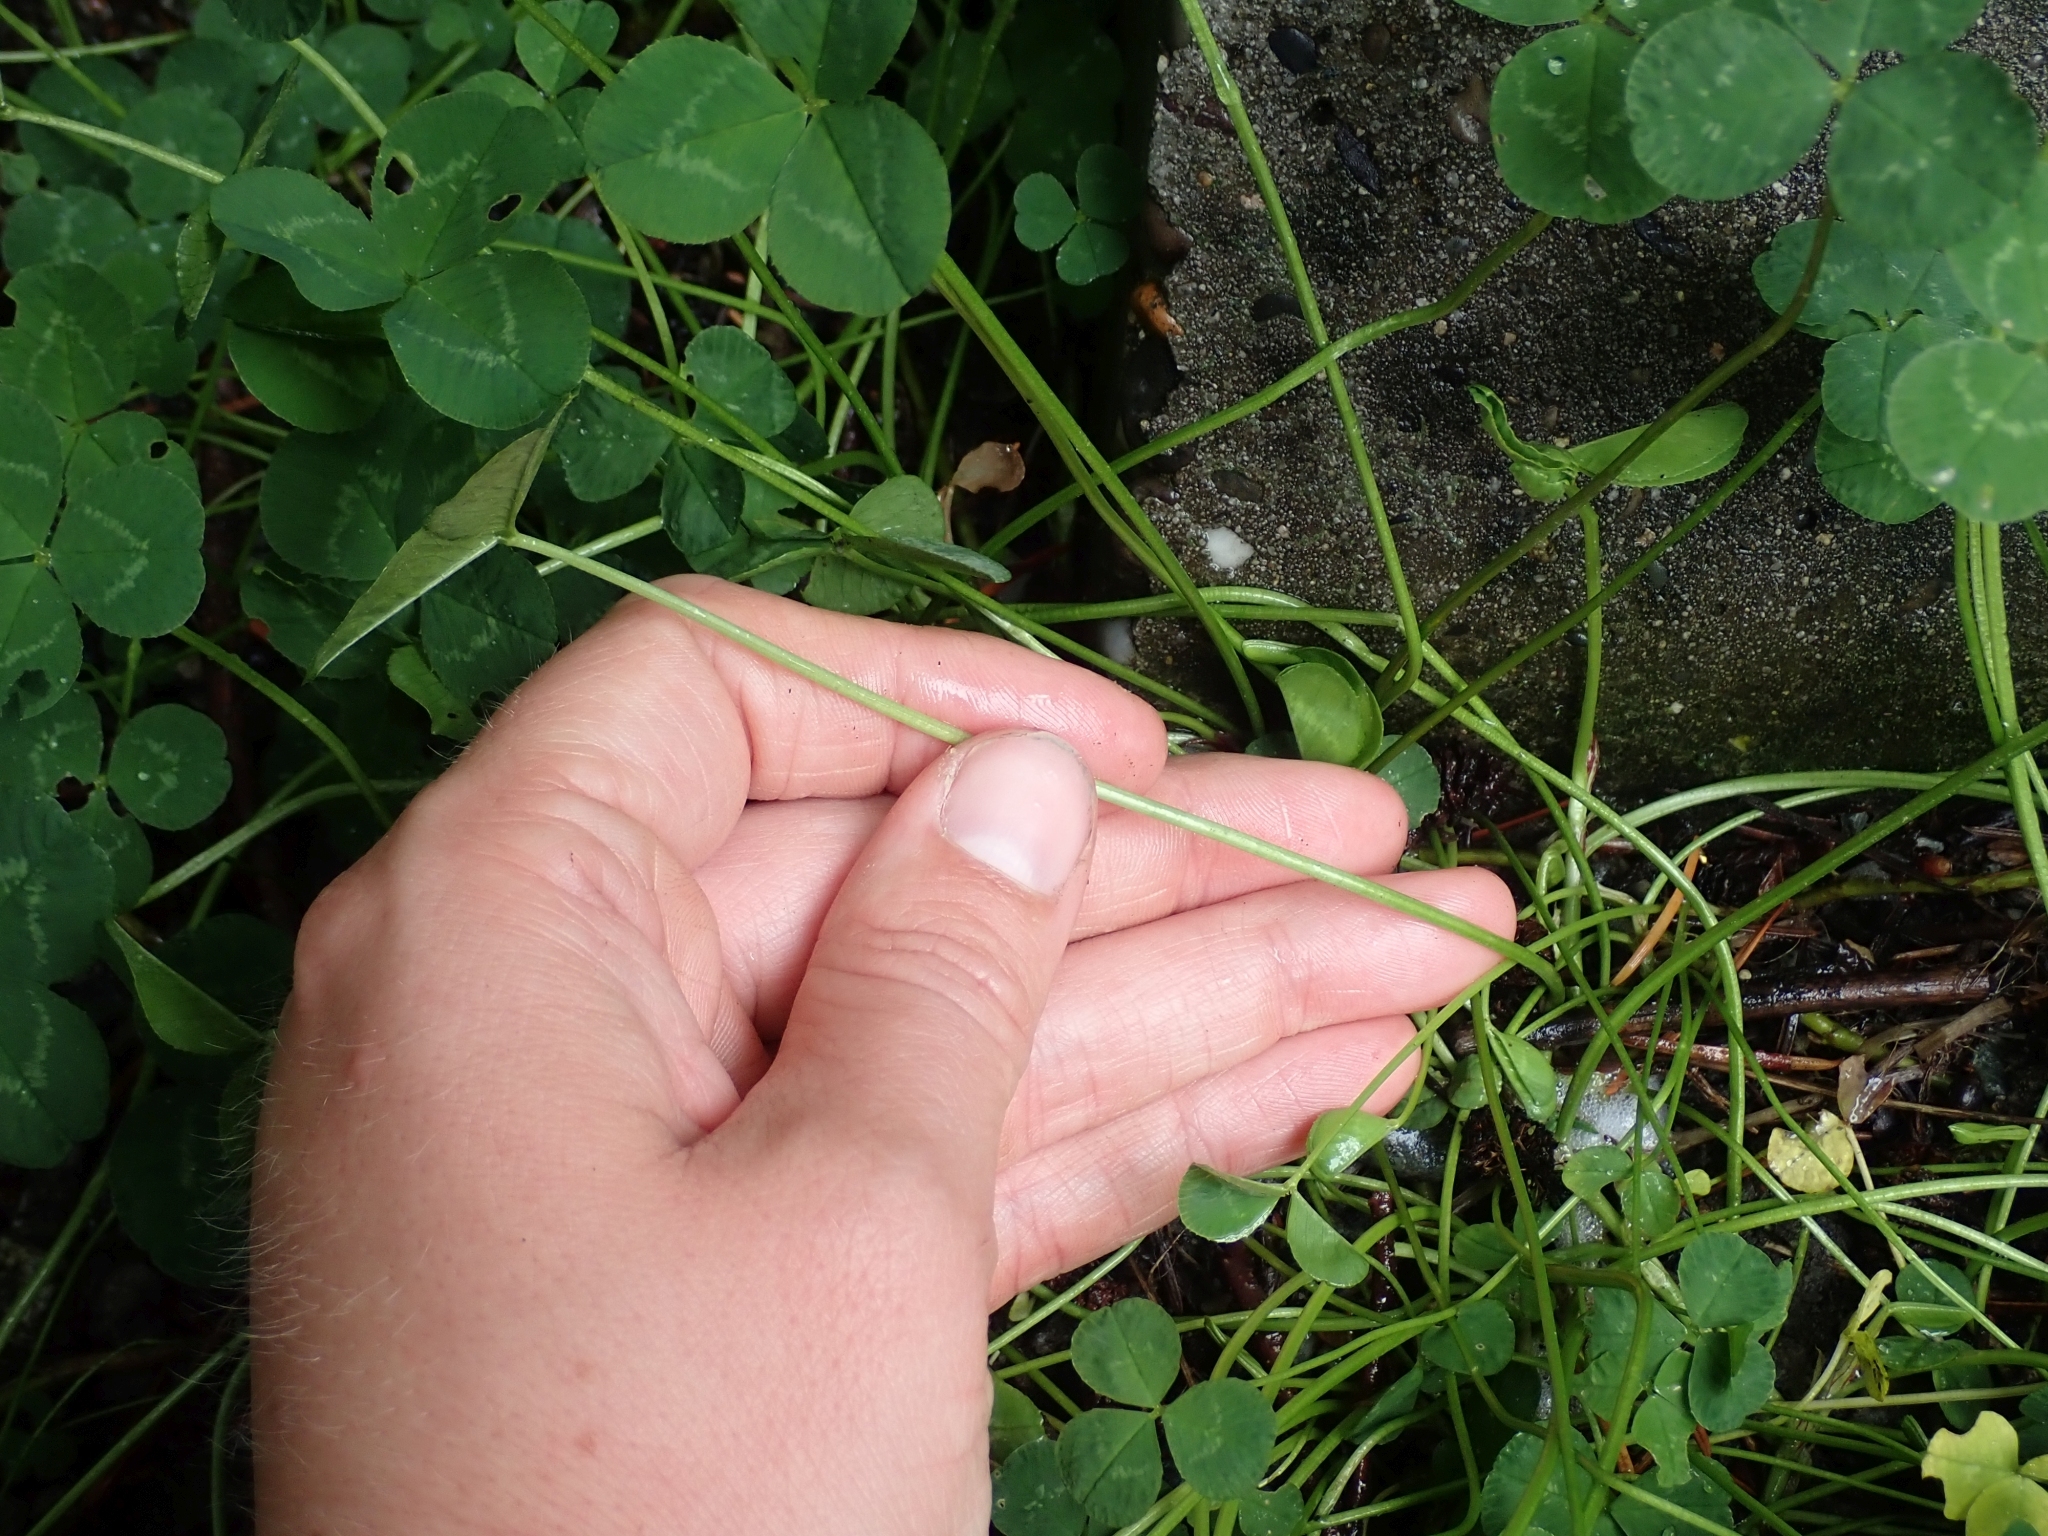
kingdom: Plantae
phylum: Tracheophyta
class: Magnoliopsida
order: Fabales
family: Fabaceae
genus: Trifolium
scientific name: Trifolium repens
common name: White clover
